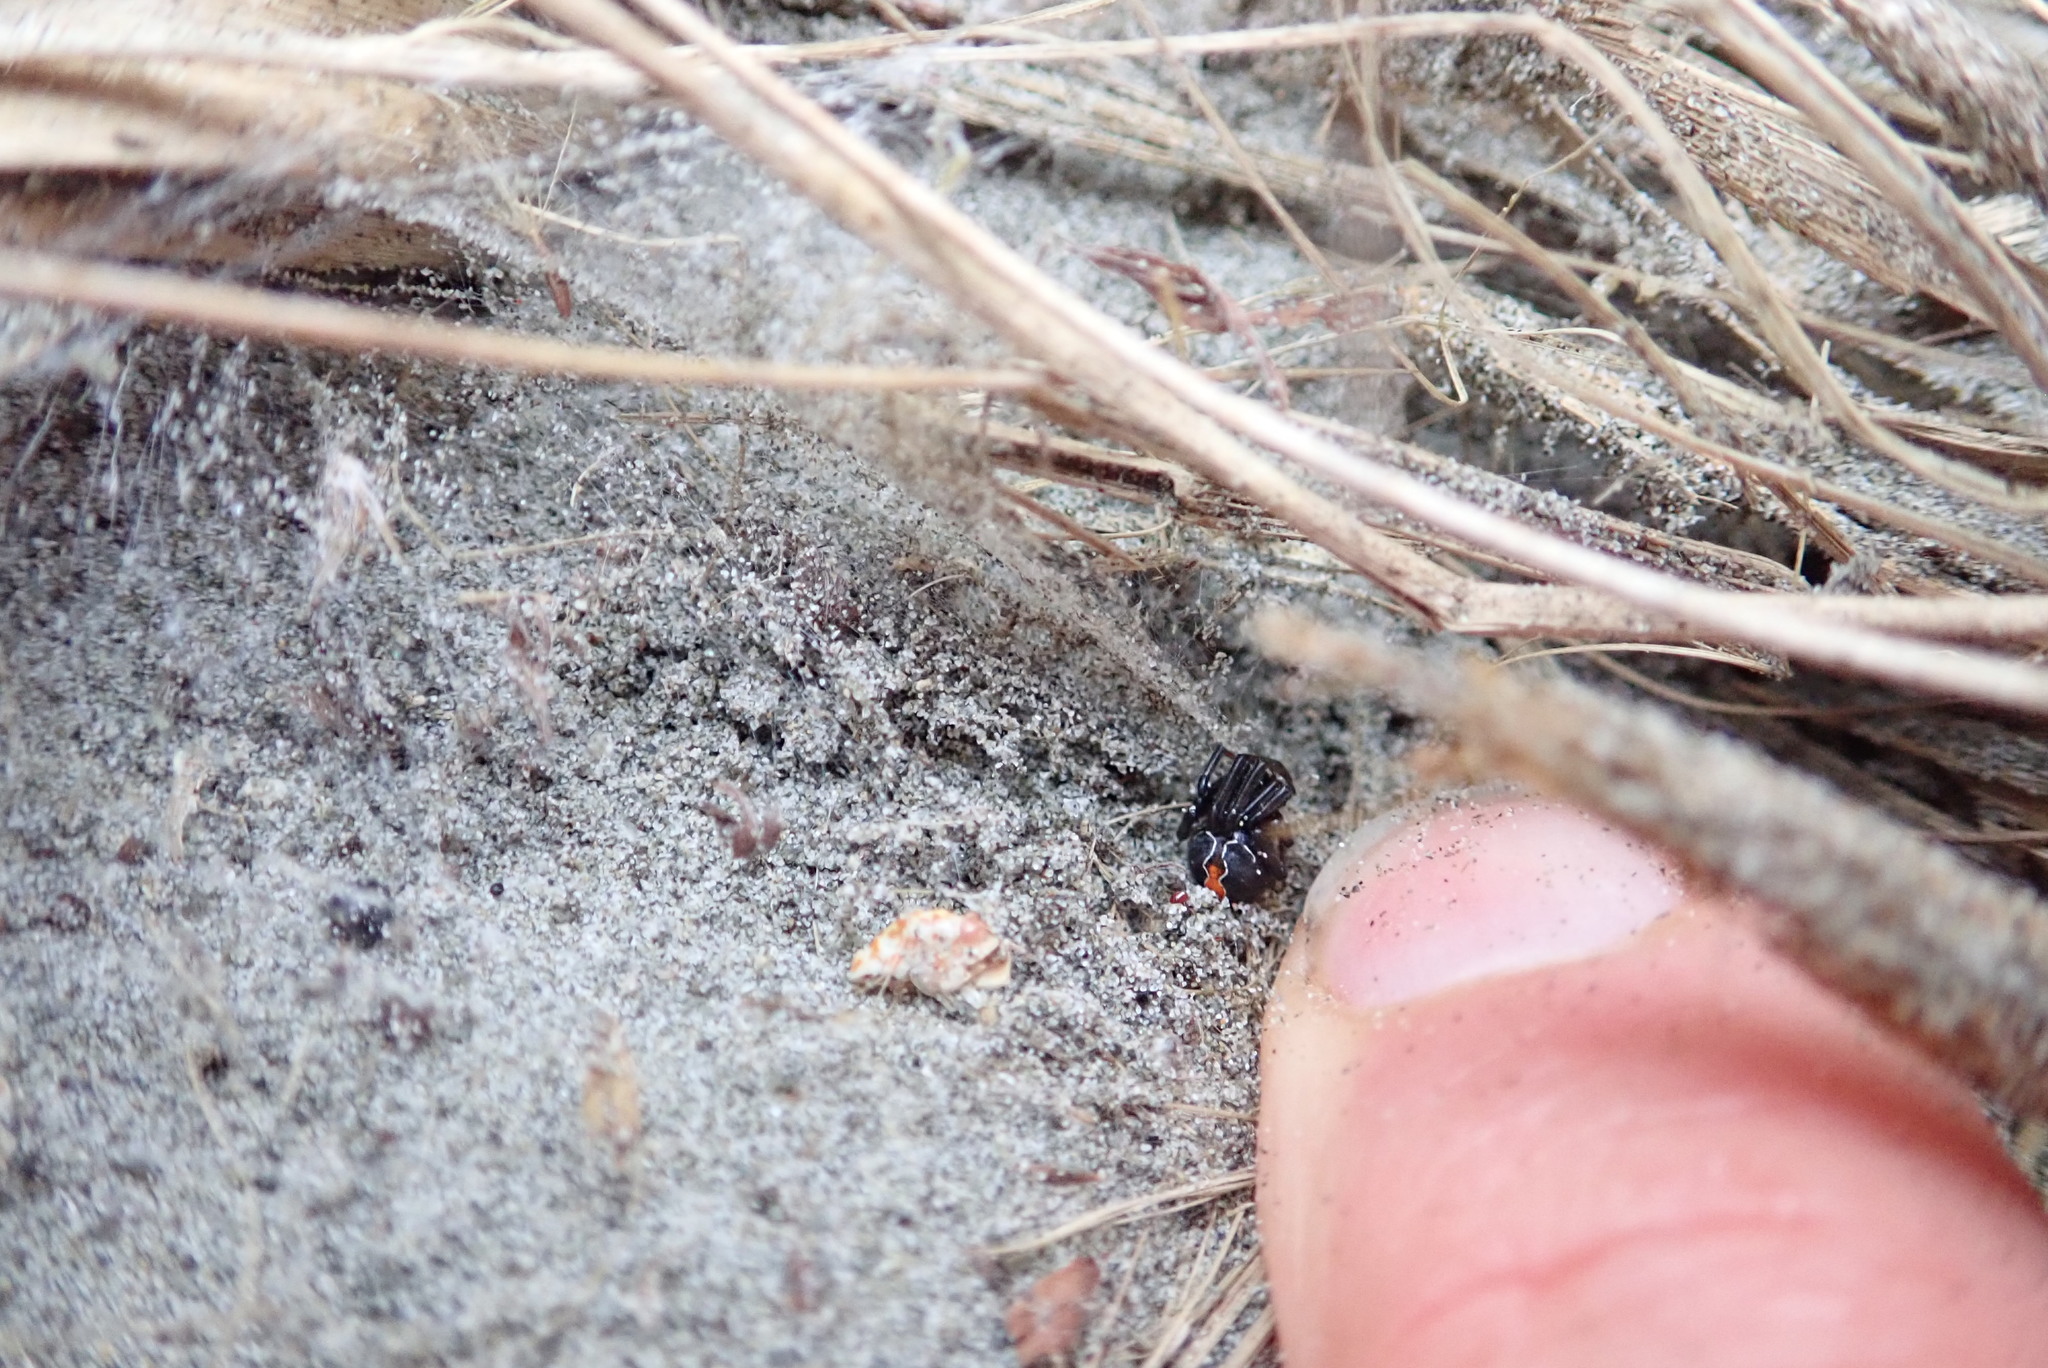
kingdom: Animalia
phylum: Arthropoda
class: Arachnida
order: Araneae
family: Theridiidae
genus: Latrodectus
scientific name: Latrodectus katipo
